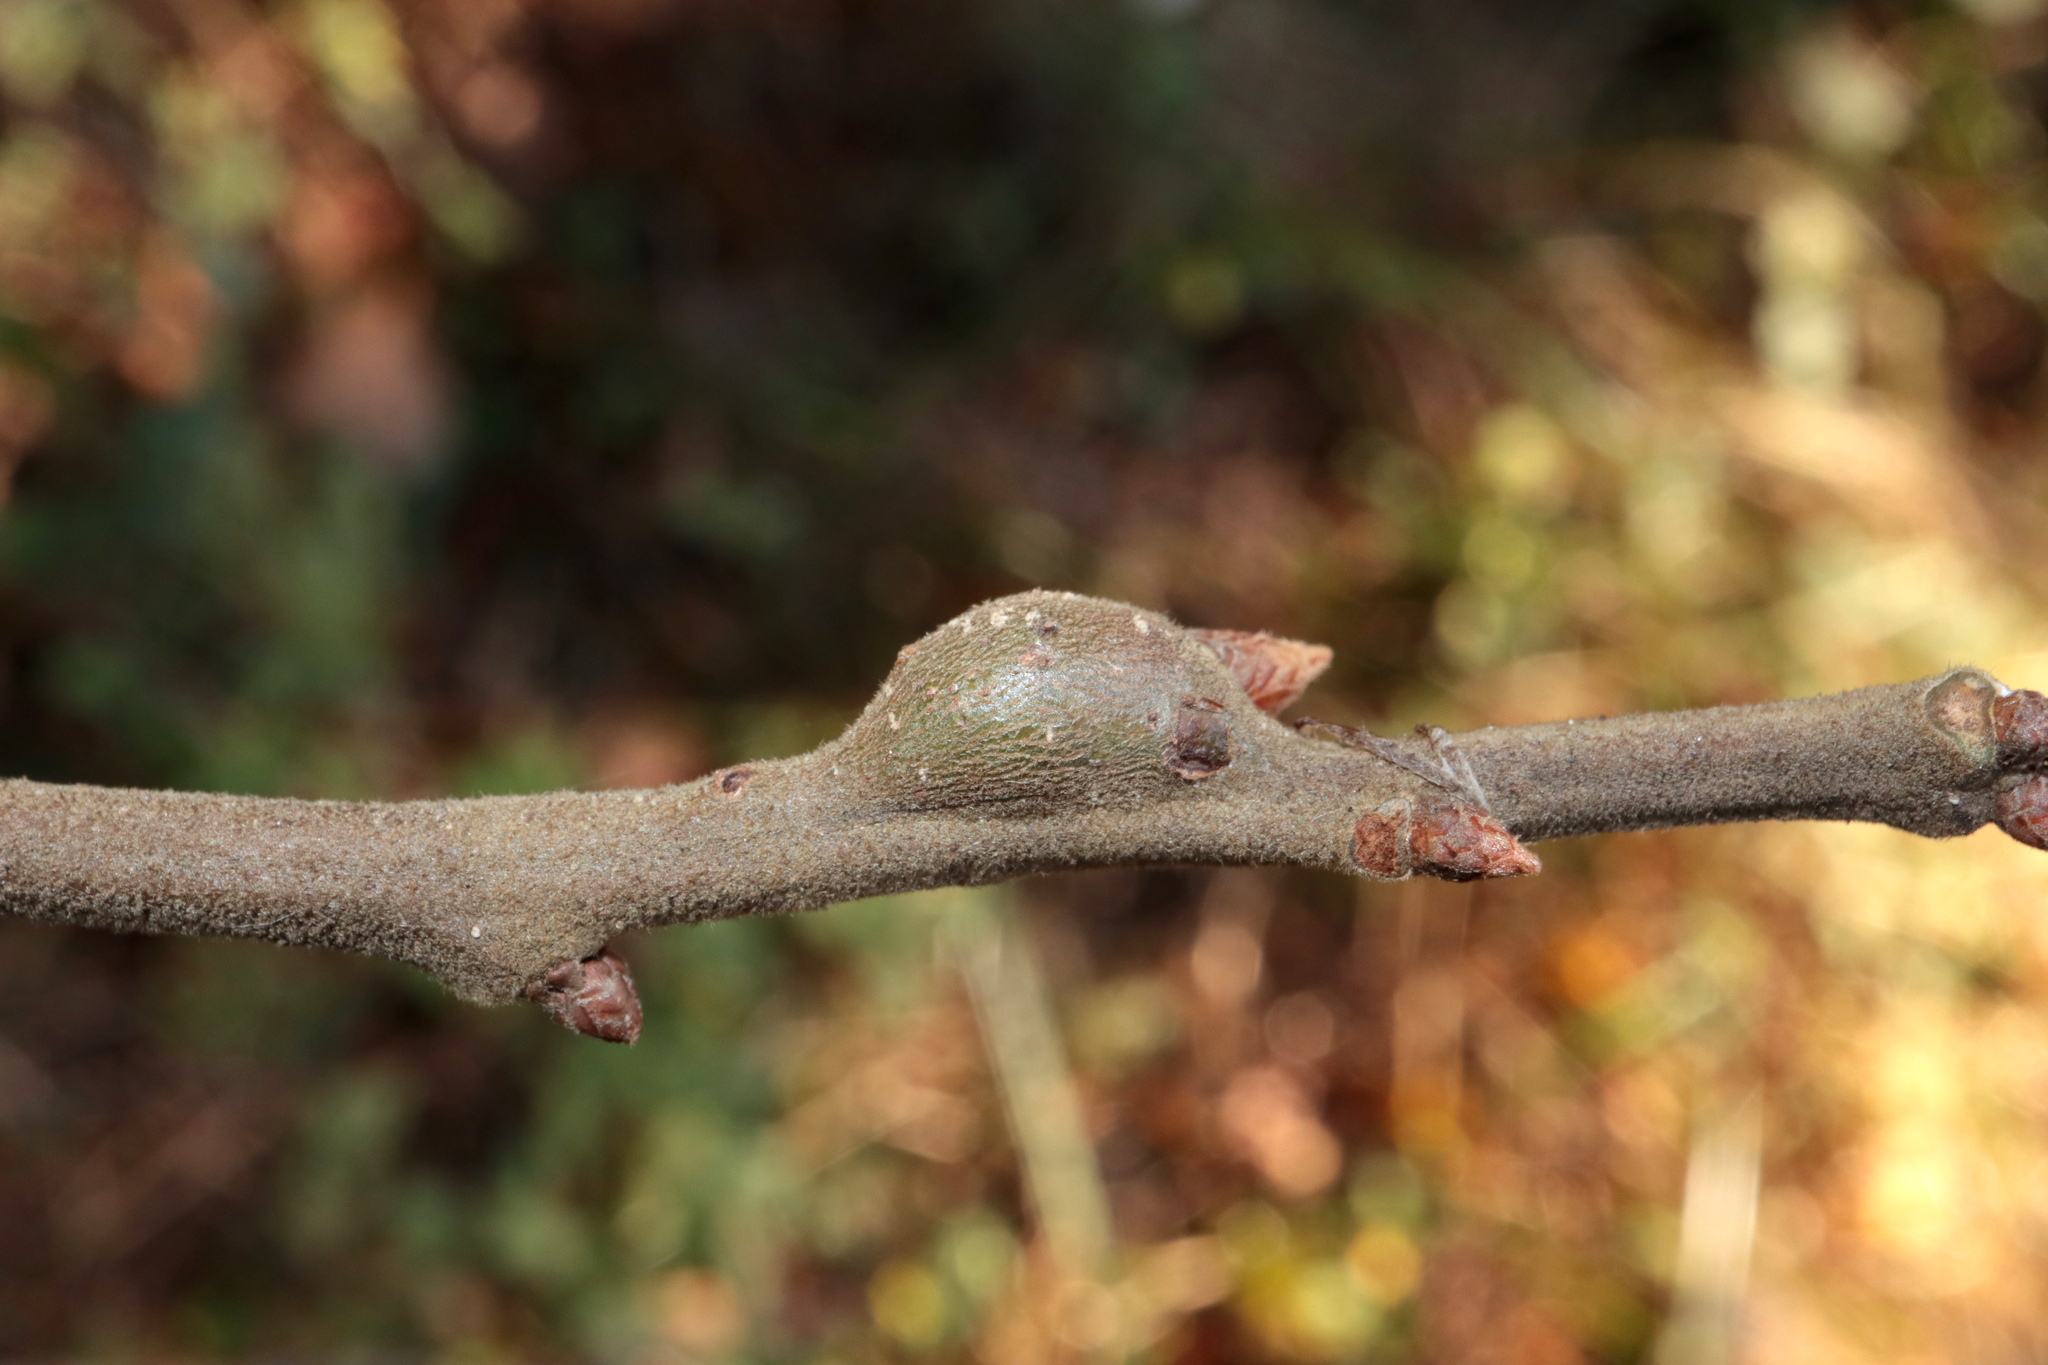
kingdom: Animalia
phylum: Arthropoda
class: Insecta
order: Hymenoptera
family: Cynipidae
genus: Zapatella
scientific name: Zapatella quercusmedullae
